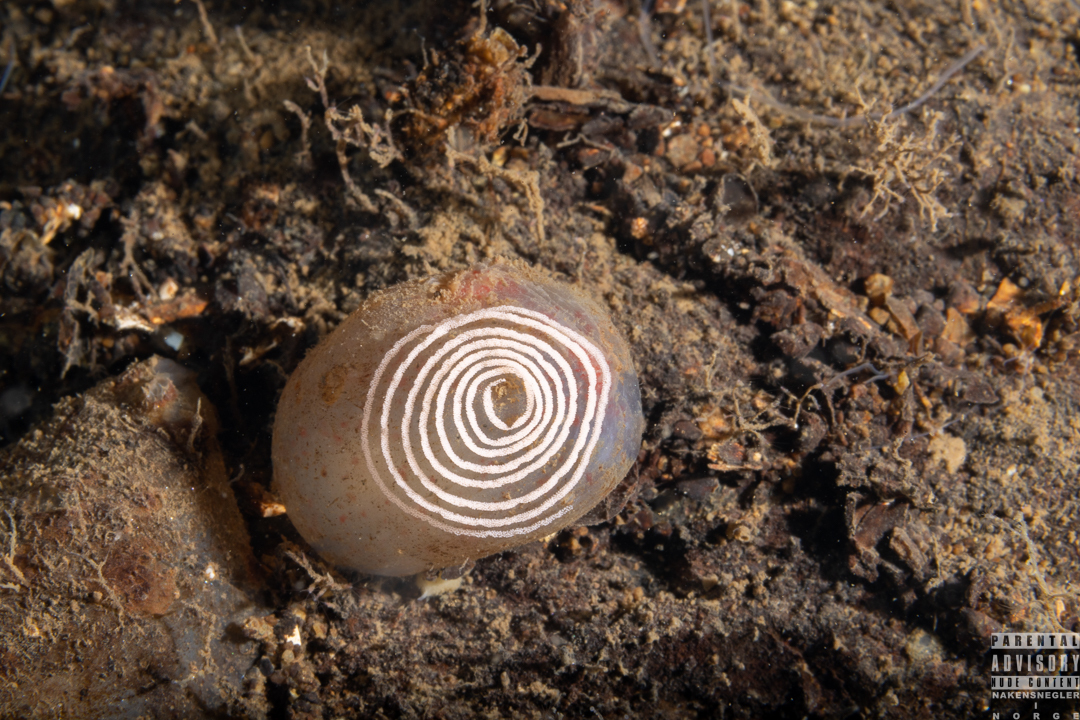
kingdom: Animalia
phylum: Mollusca
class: Gastropoda
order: Nudibranchia
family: Heroidae
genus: Hero
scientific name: Hero formosa
